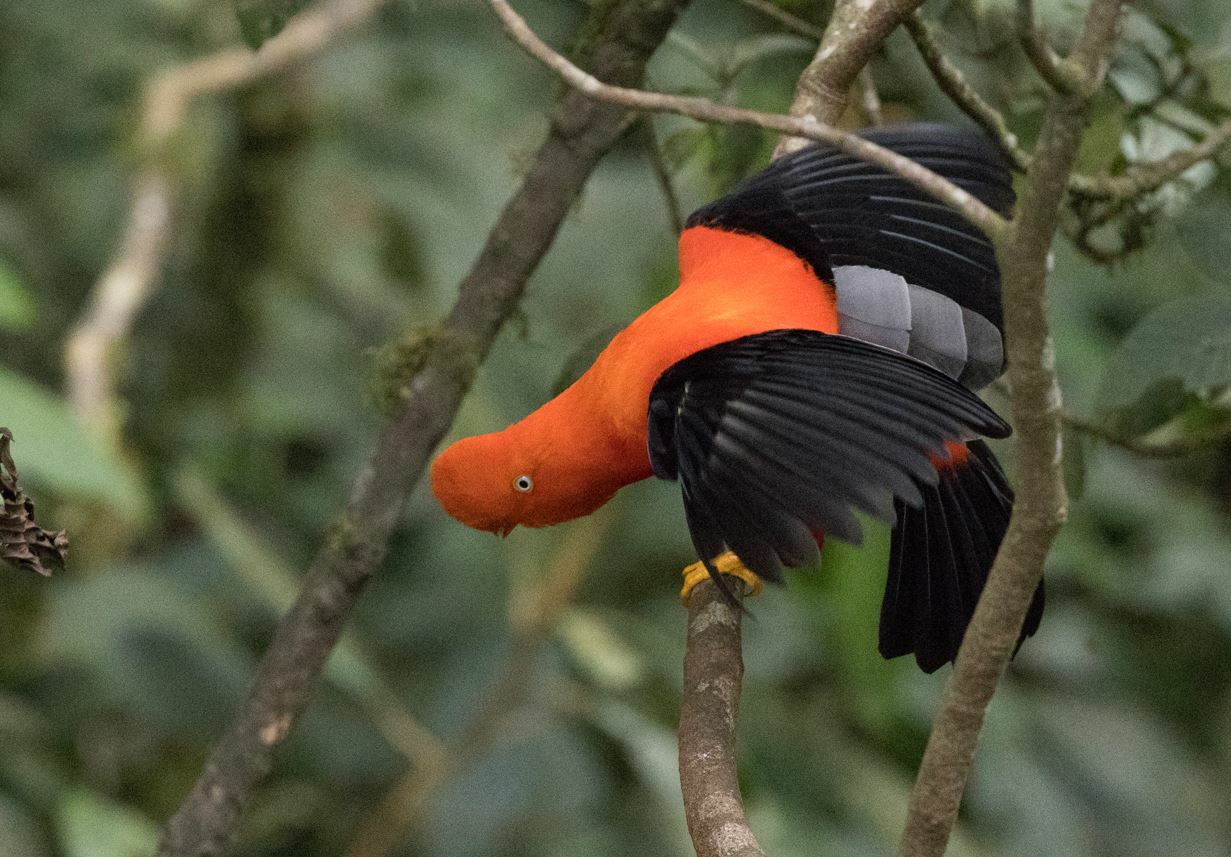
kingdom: Animalia
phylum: Chordata
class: Aves
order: Passeriformes
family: Cotingidae
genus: Rupicola
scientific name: Rupicola peruvianus
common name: Andean cock-of-the-rock
